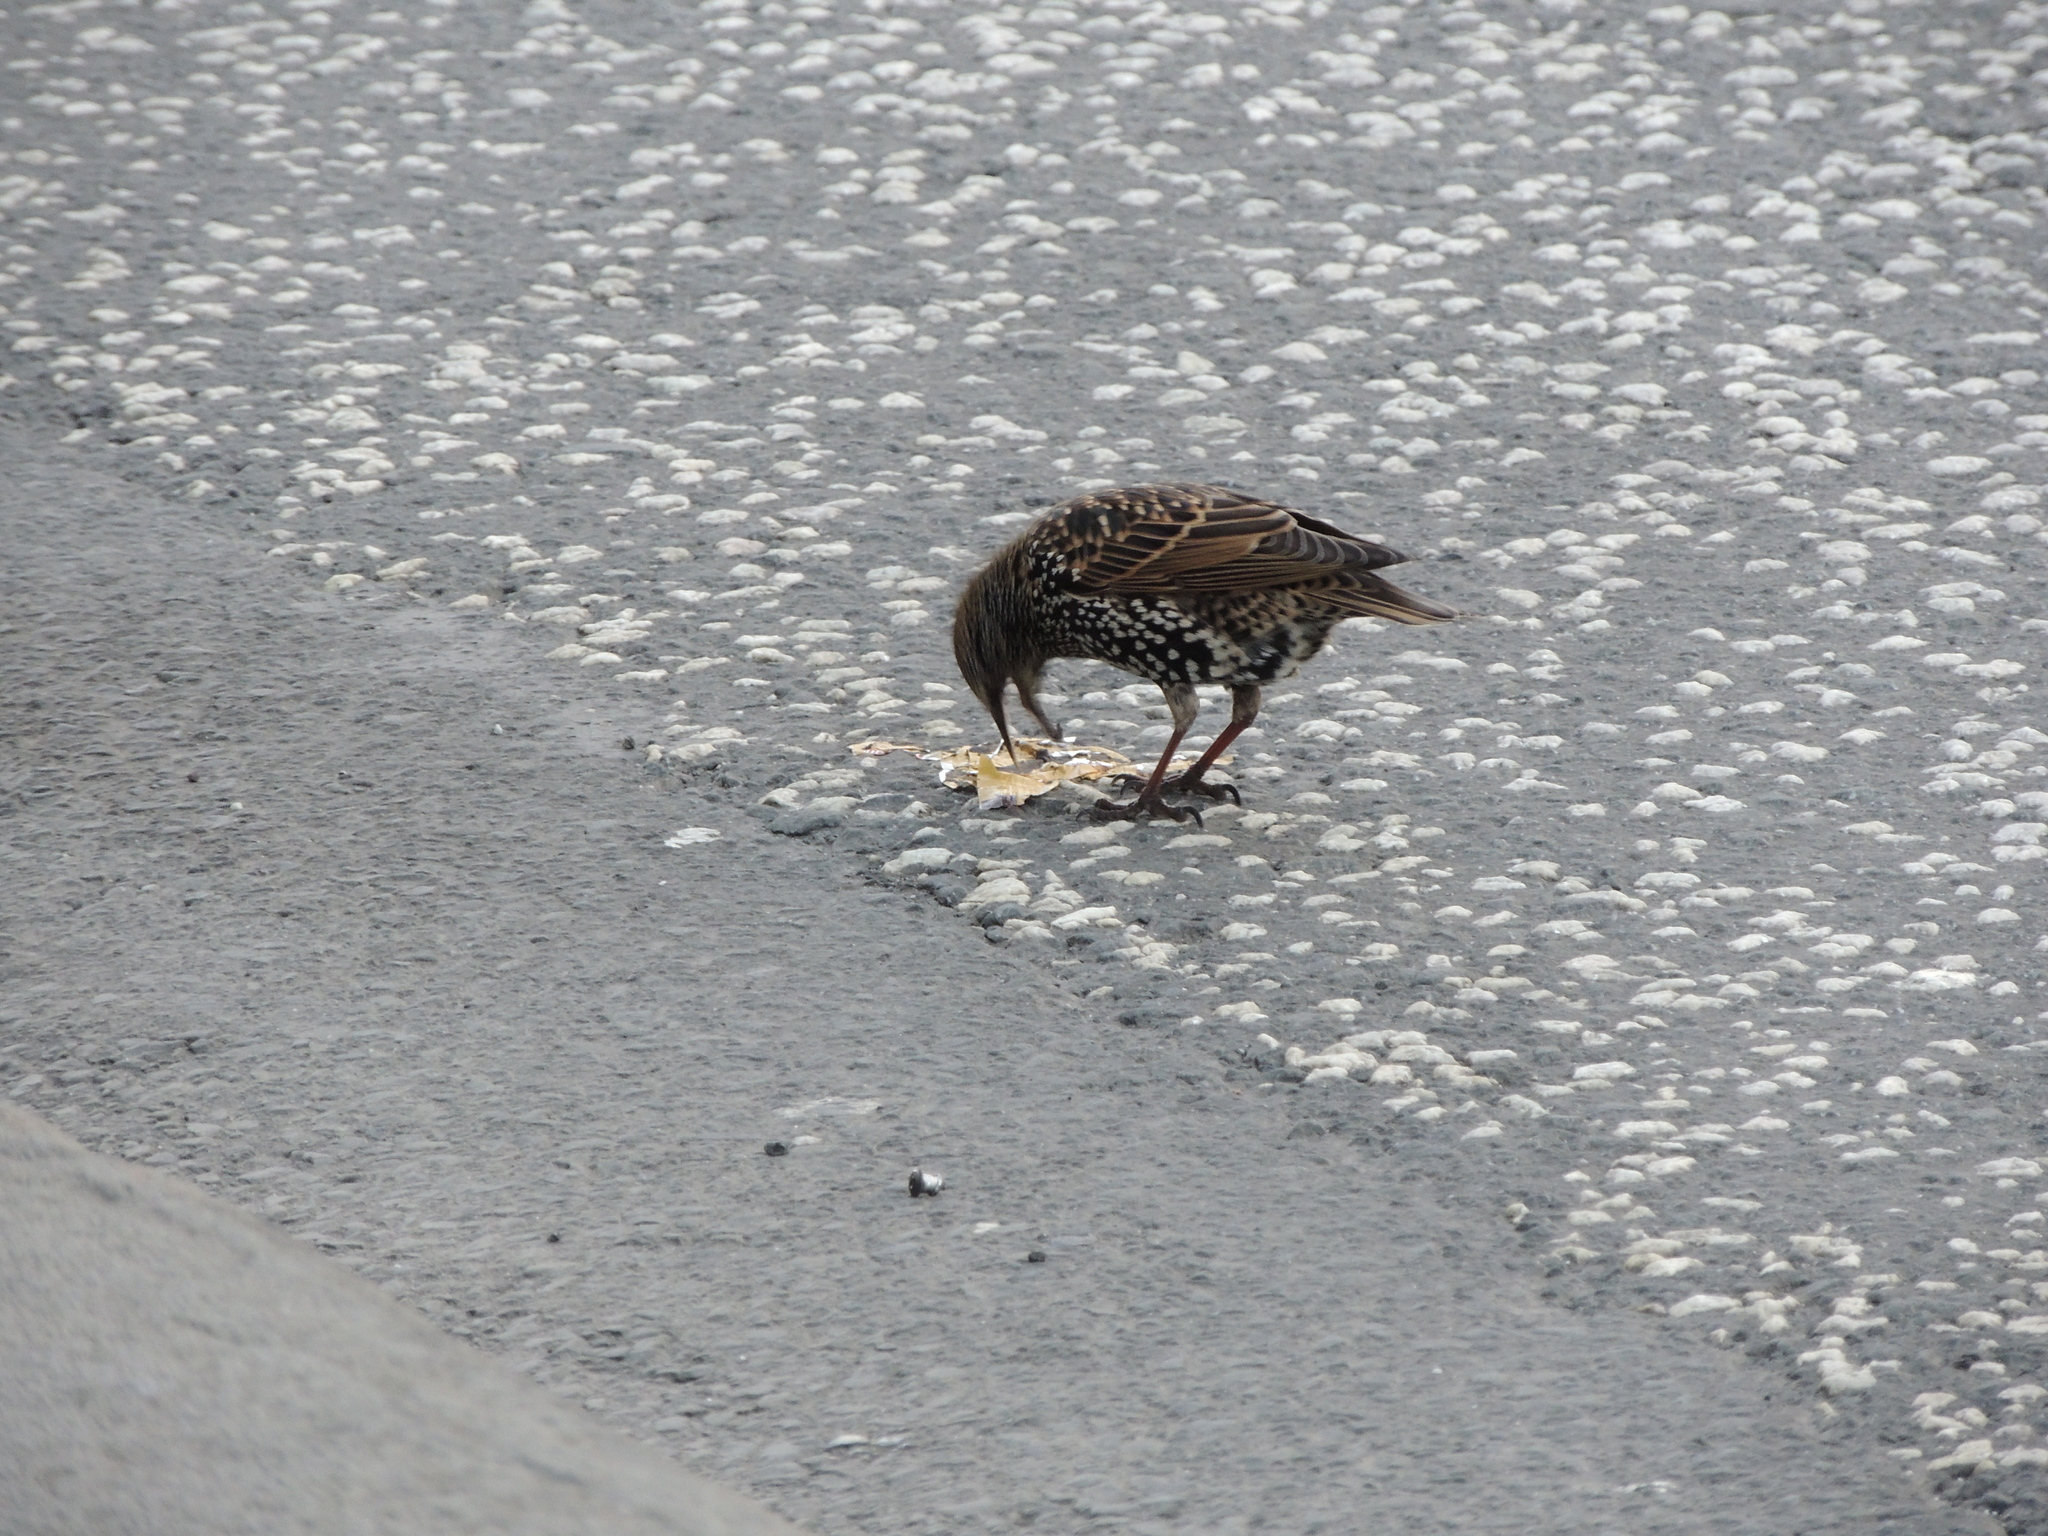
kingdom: Animalia
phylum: Chordata
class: Aves
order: Passeriformes
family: Sturnidae
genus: Sturnus
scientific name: Sturnus vulgaris
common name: Common starling
